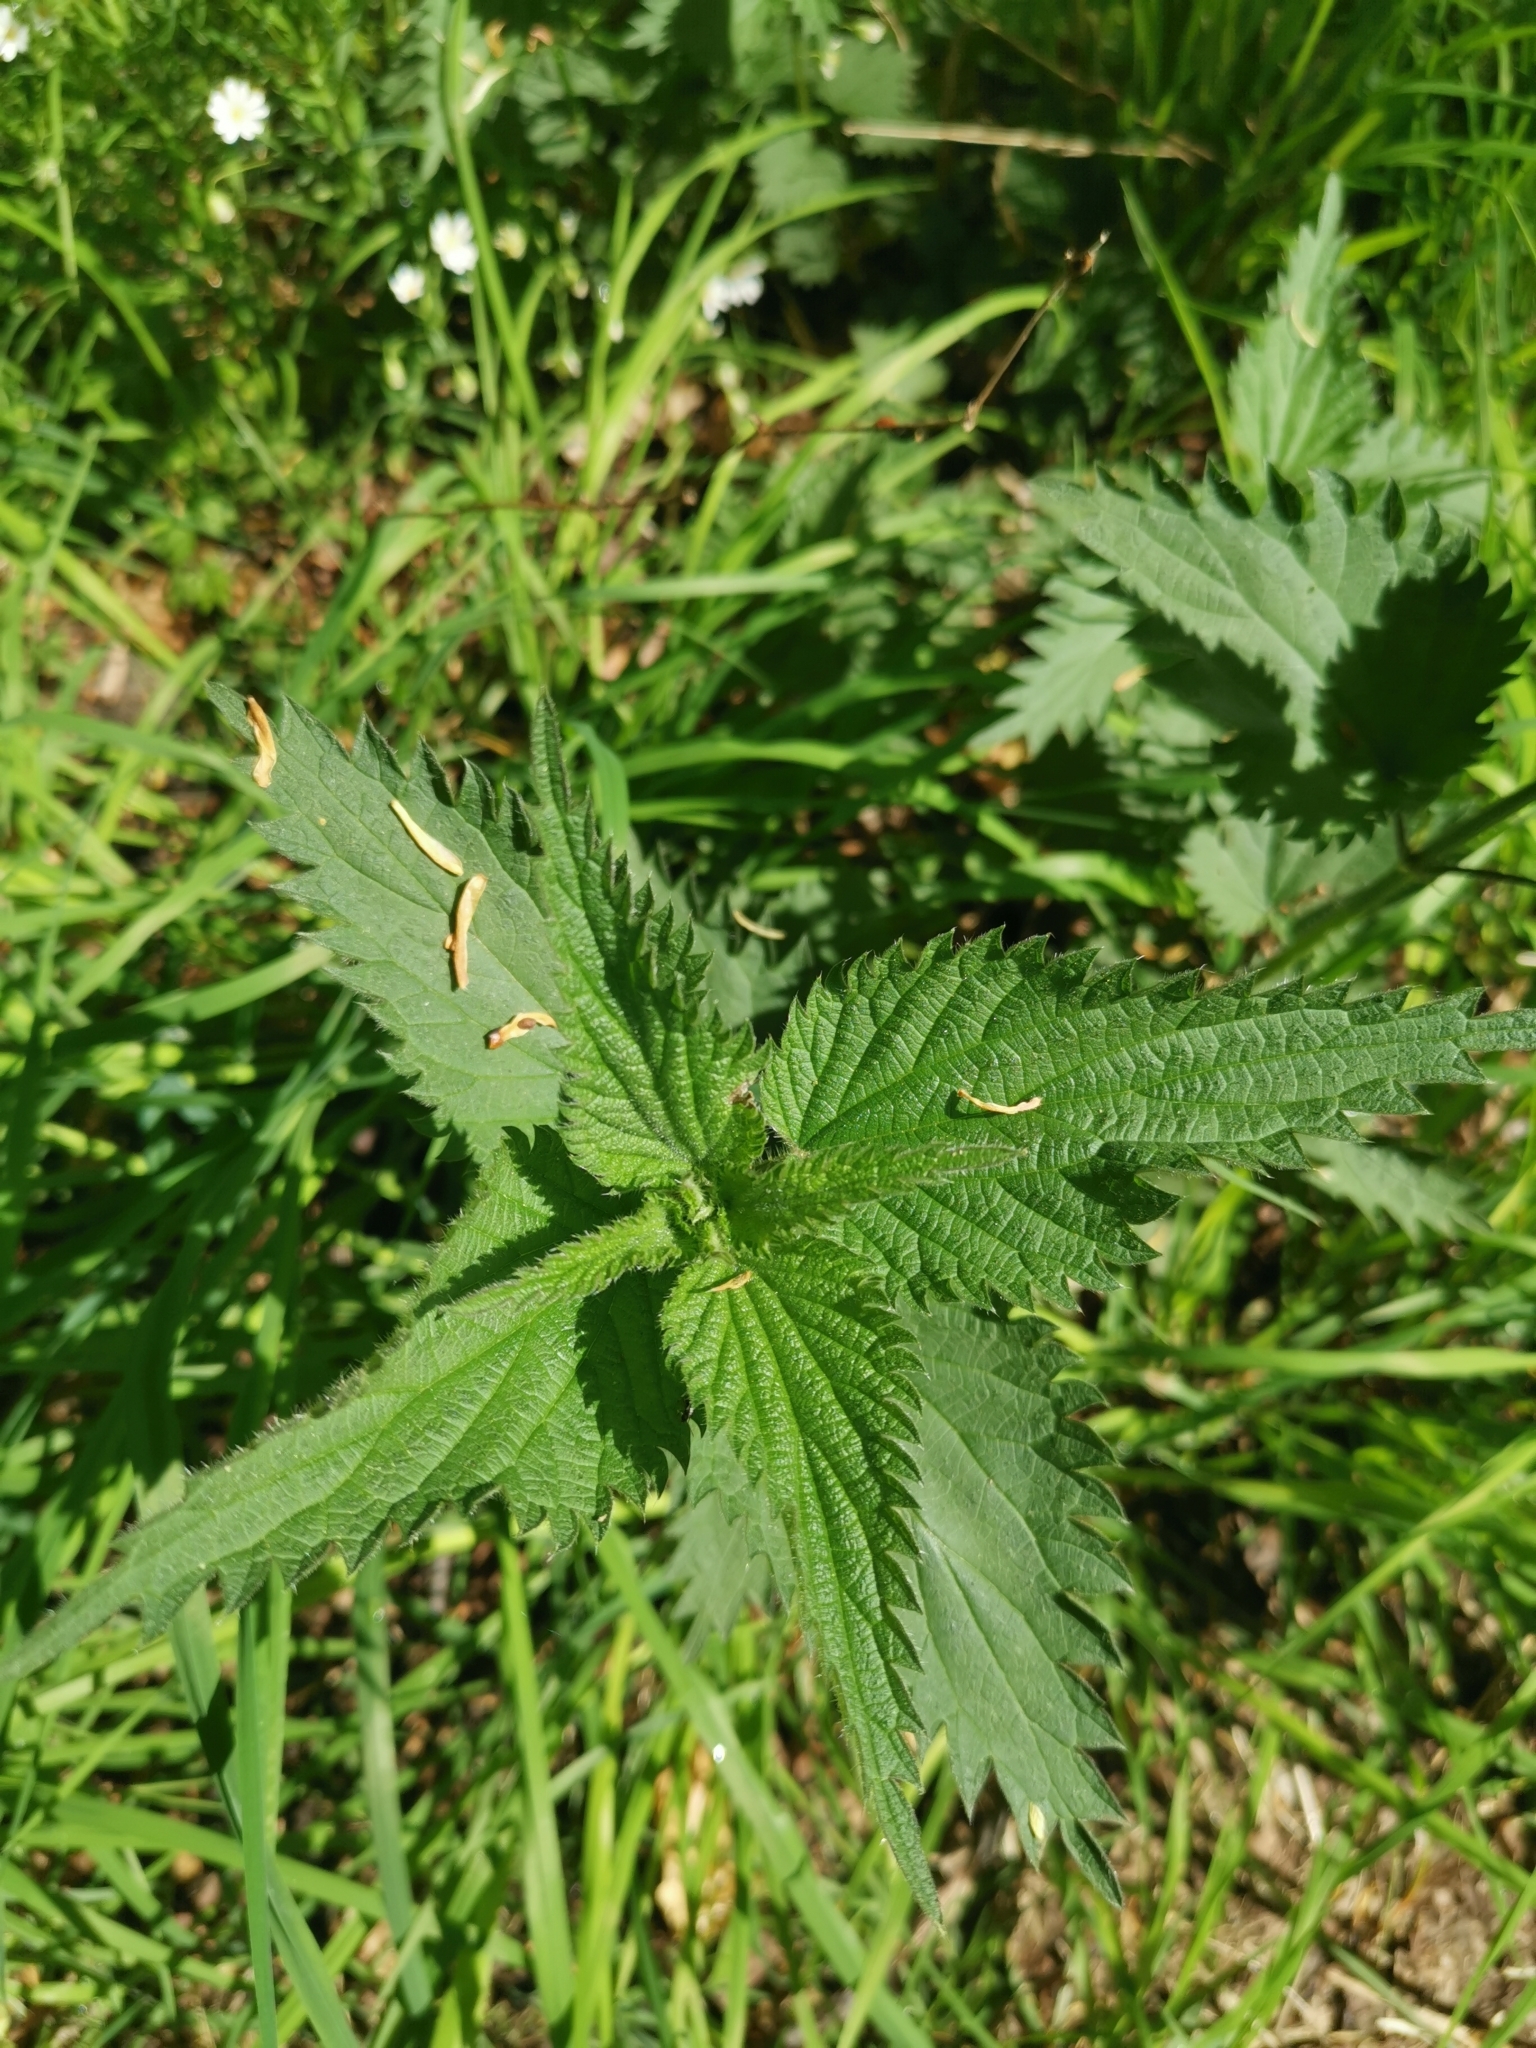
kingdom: Plantae
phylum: Tracheophyta
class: Magnoliopsida
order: Rosales
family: Urticaceae
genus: Urtica
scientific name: Urtica dioica
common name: Common nettle
